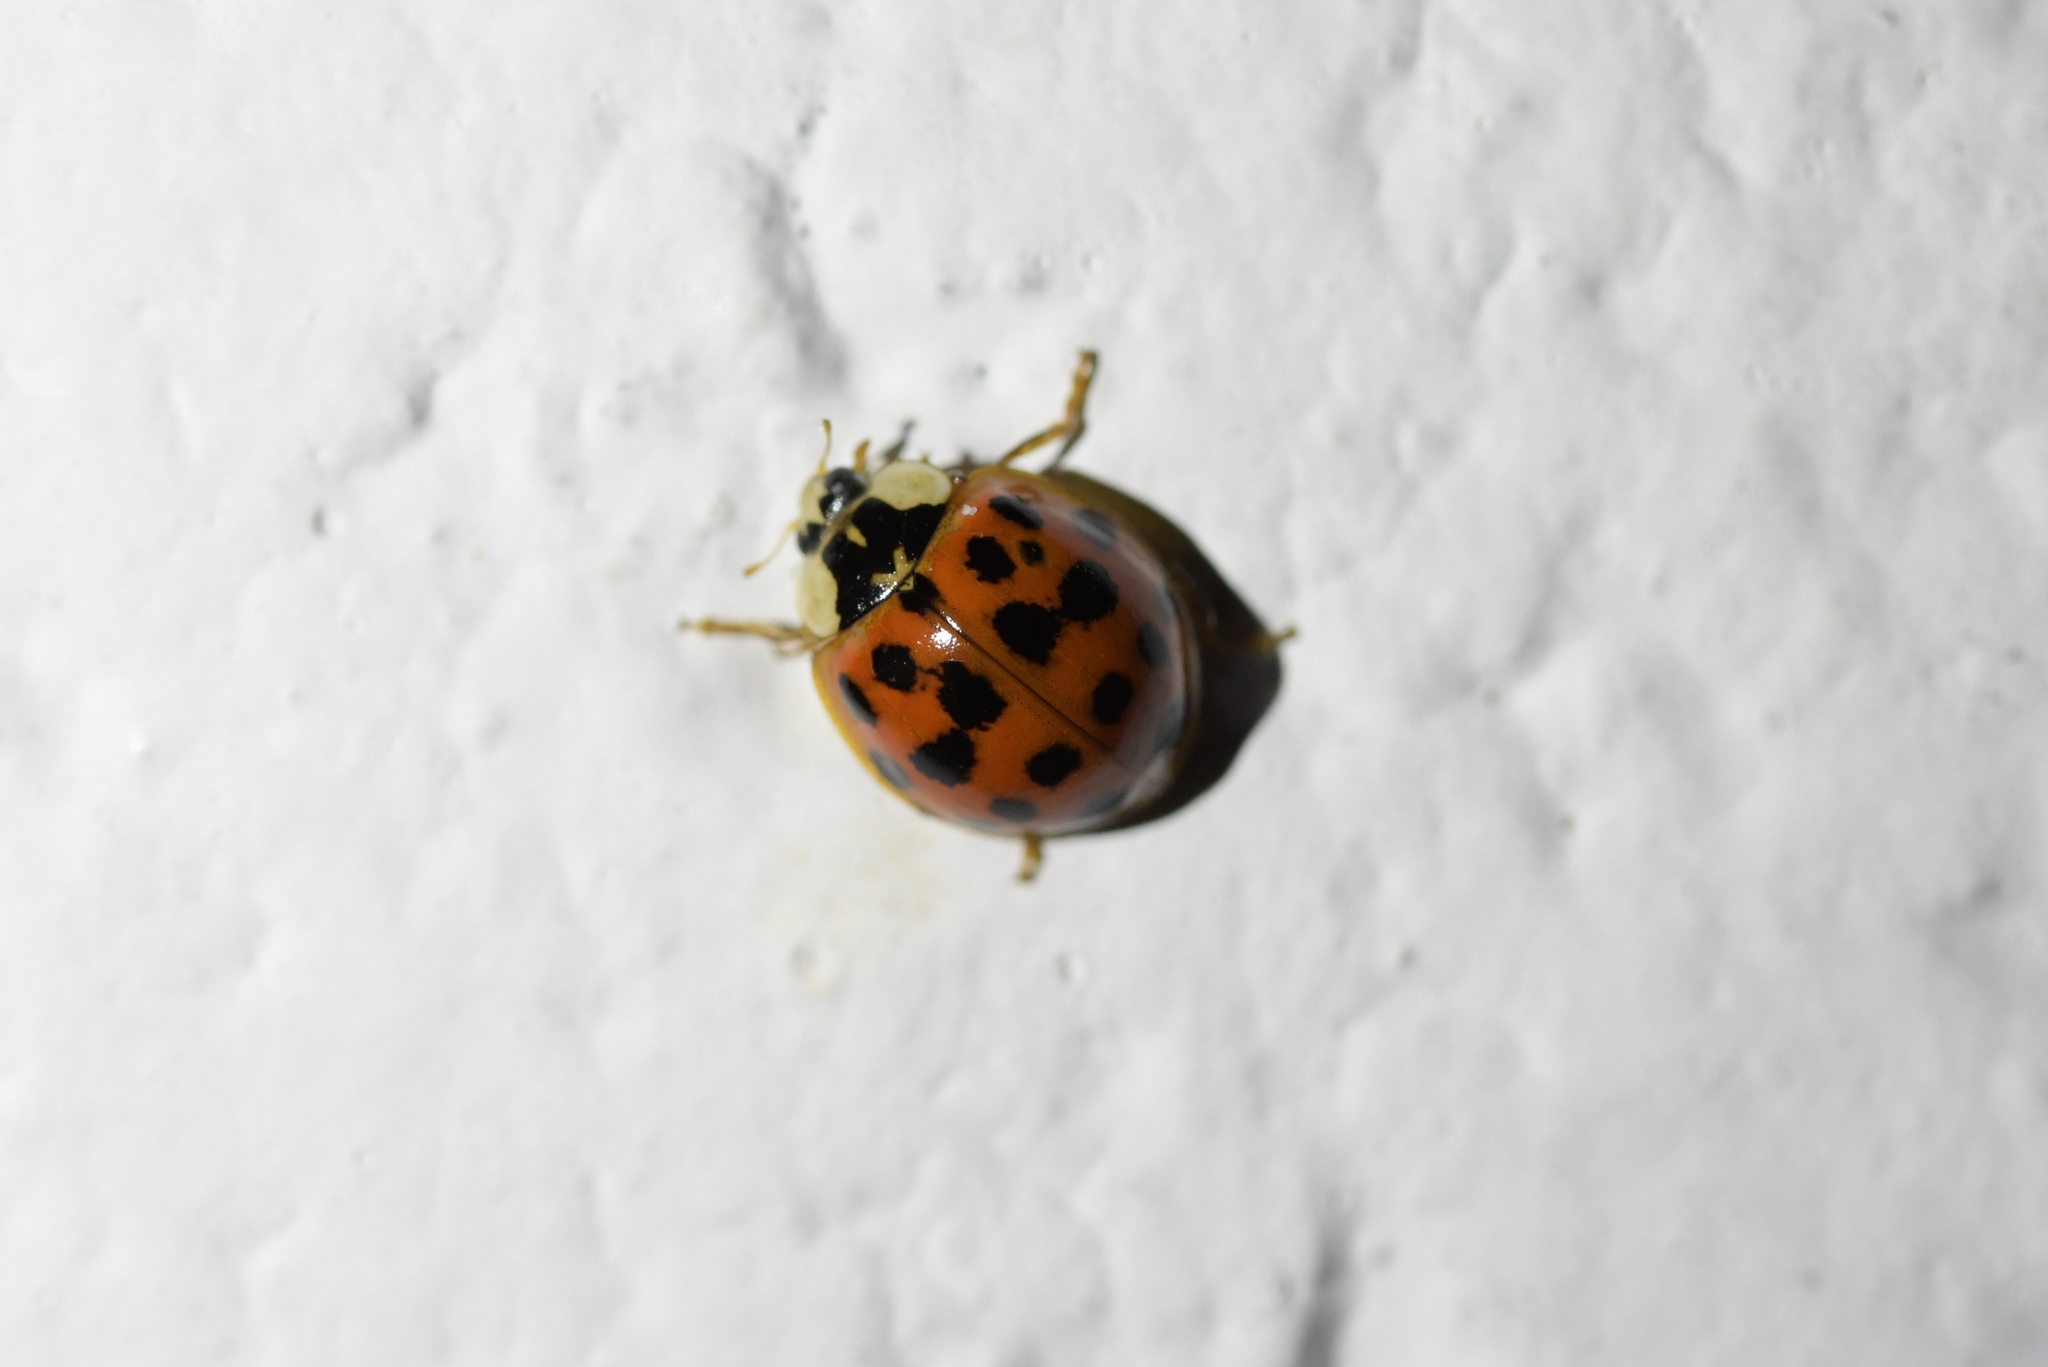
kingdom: Animalia
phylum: Arthropoda
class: Insecta
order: Coleoptera
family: Coccinellidae
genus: Harmonia
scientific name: Harmonia axyridis
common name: Harlequin ladybird
